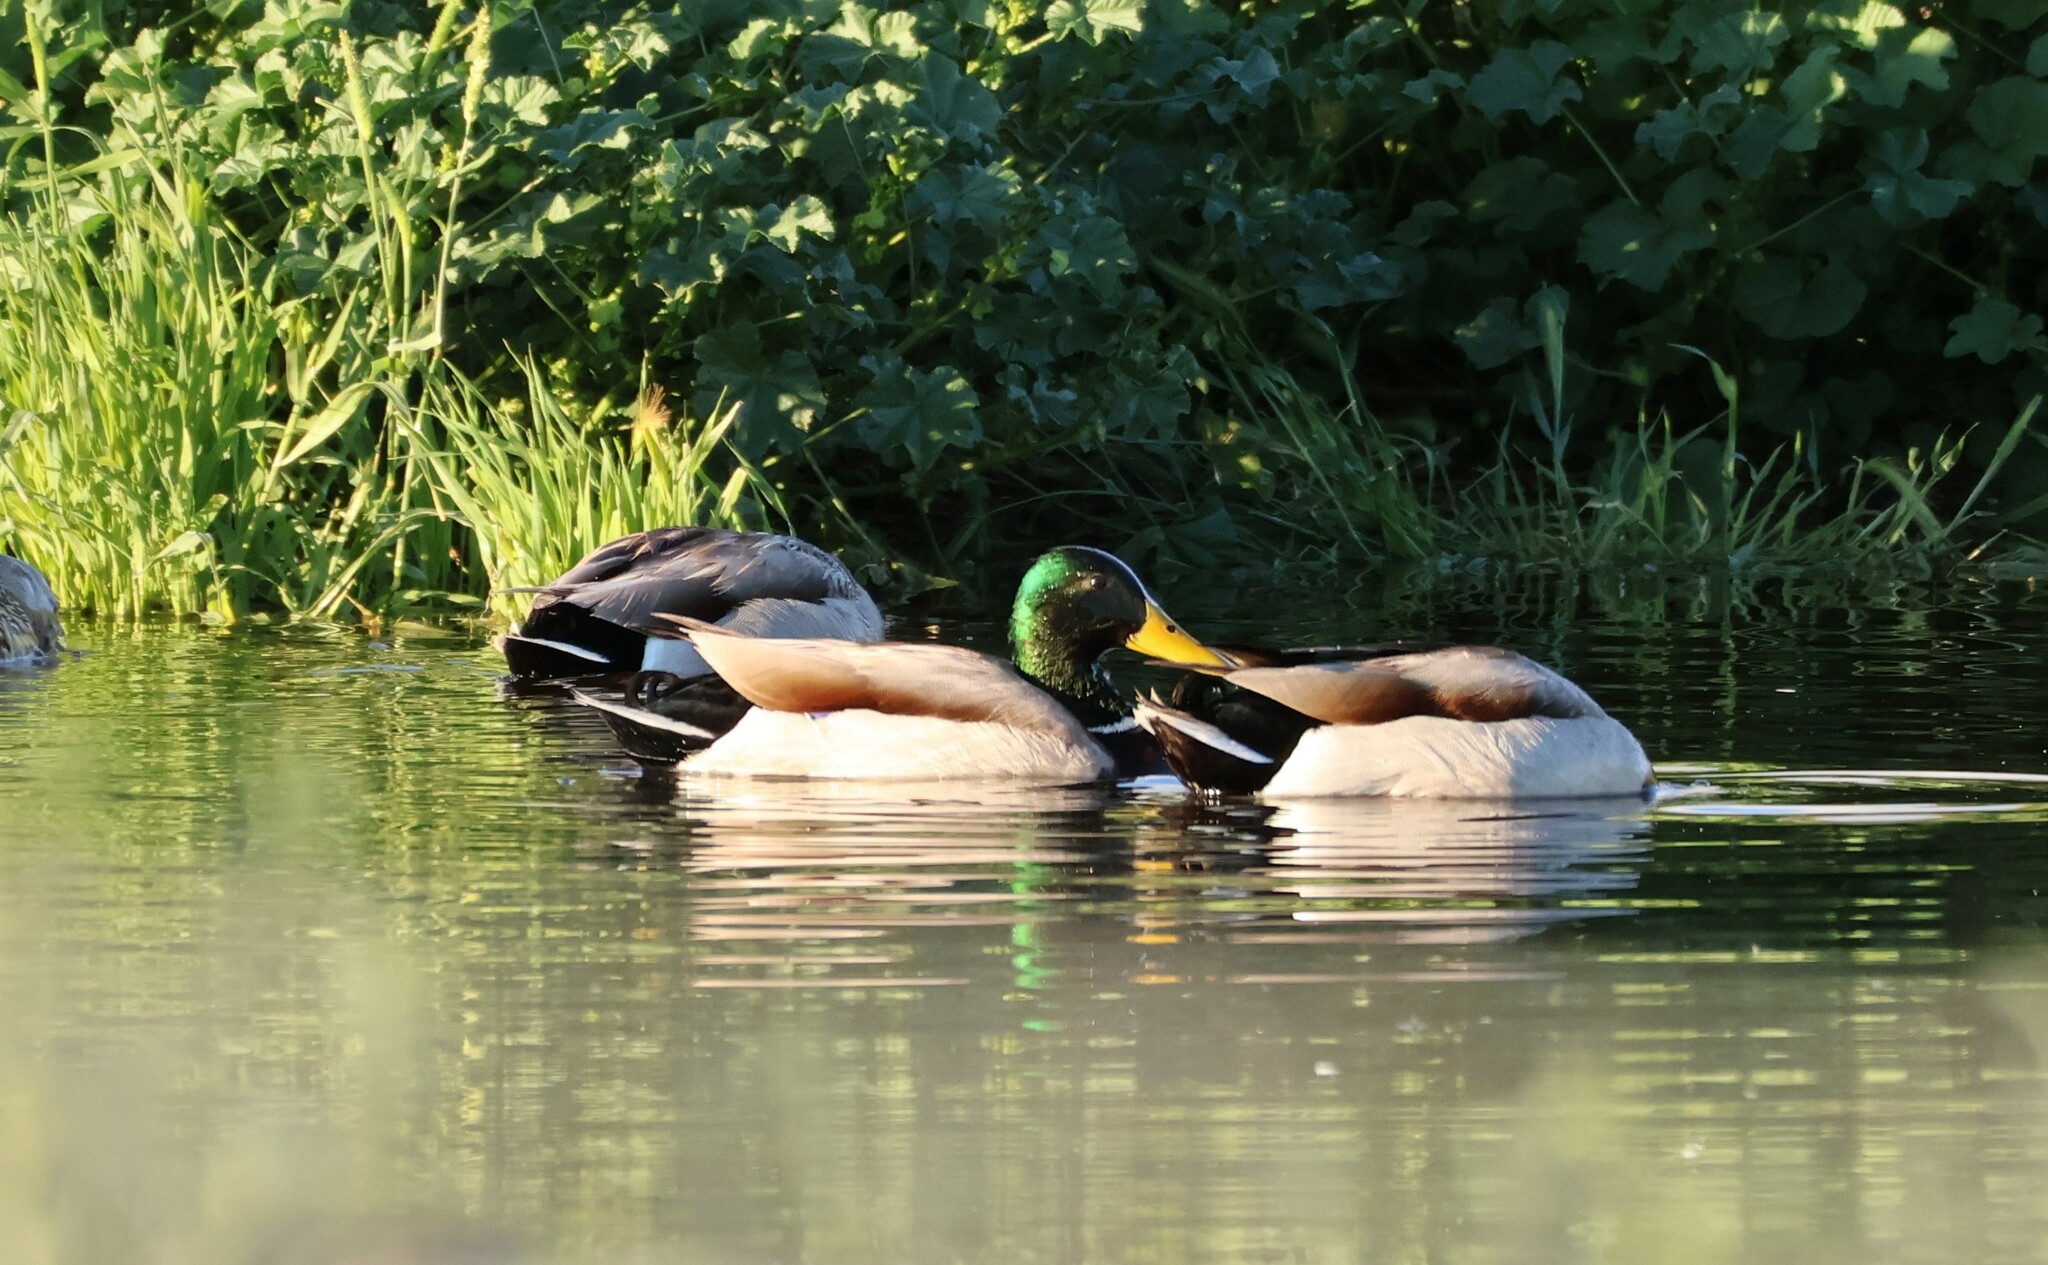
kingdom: Animalia
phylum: Chordata
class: Aves
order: Anseriformes
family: Anatidae
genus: Anas
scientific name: Anas platyrhynchos
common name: Mallard
